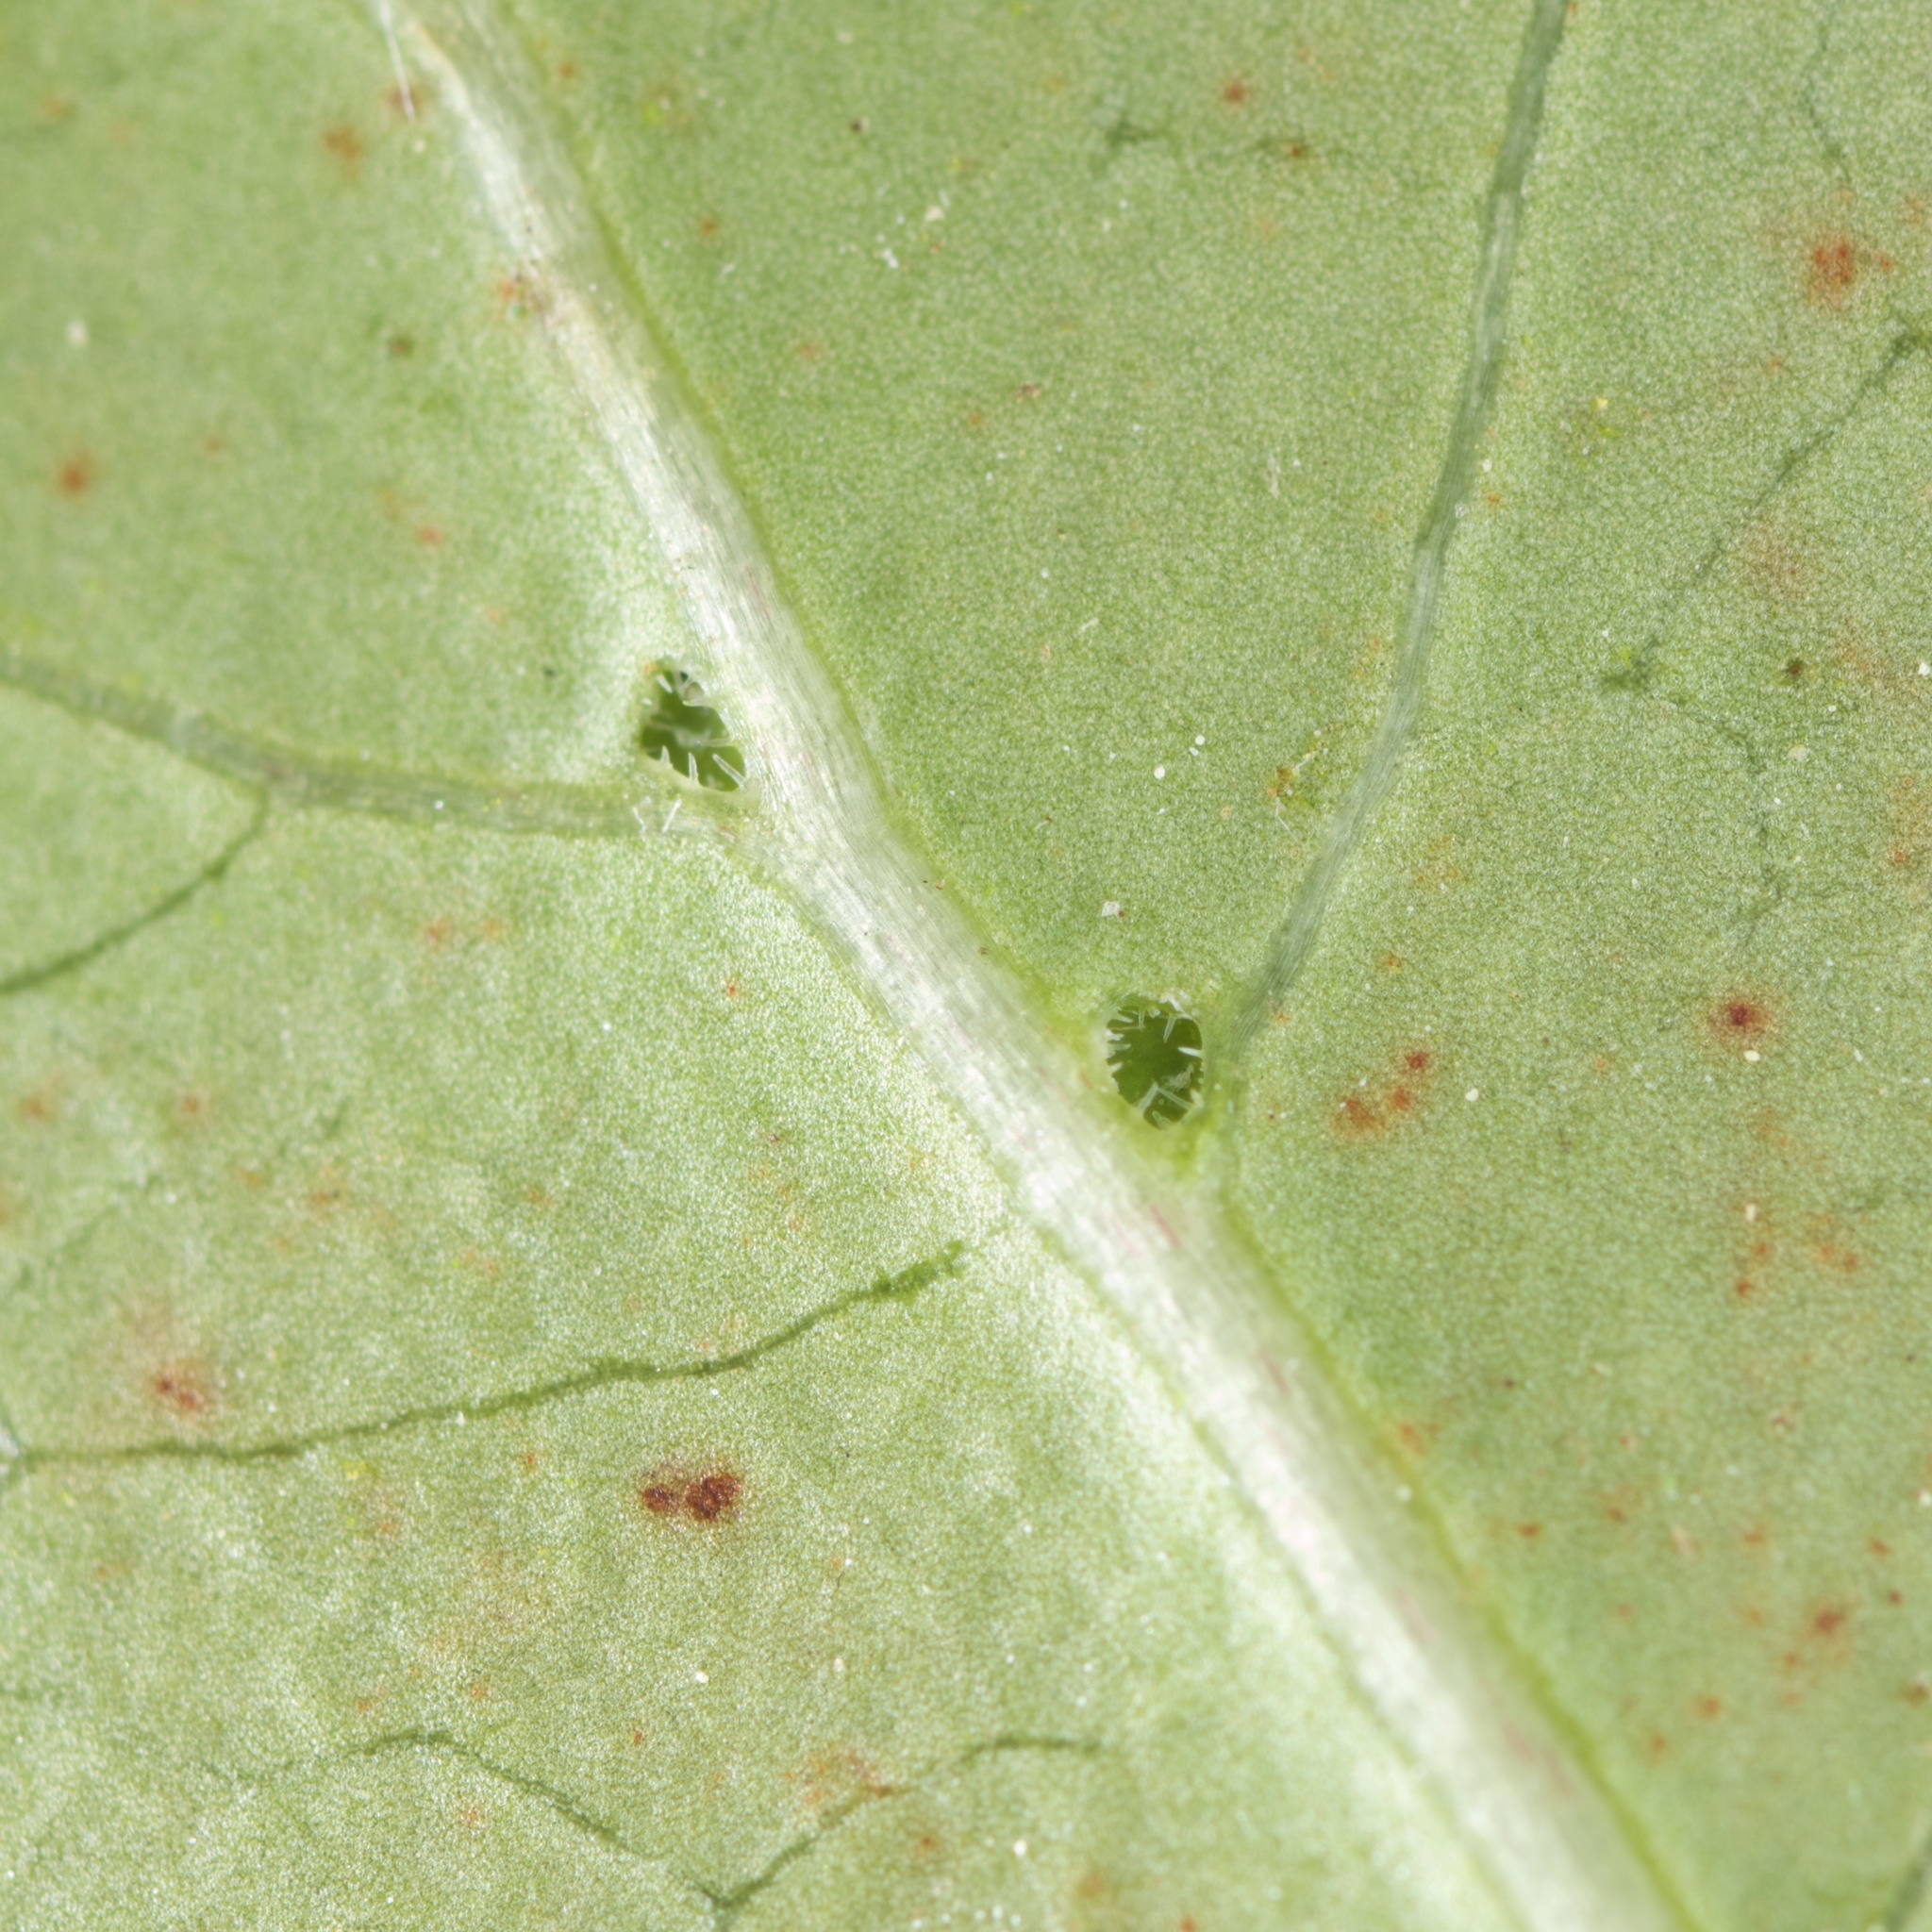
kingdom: Plantae
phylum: Tracheophyta
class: Magnoliopsida
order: Gentianales
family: Rubiaceae
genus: Coprosma
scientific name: Coprosma robusta
